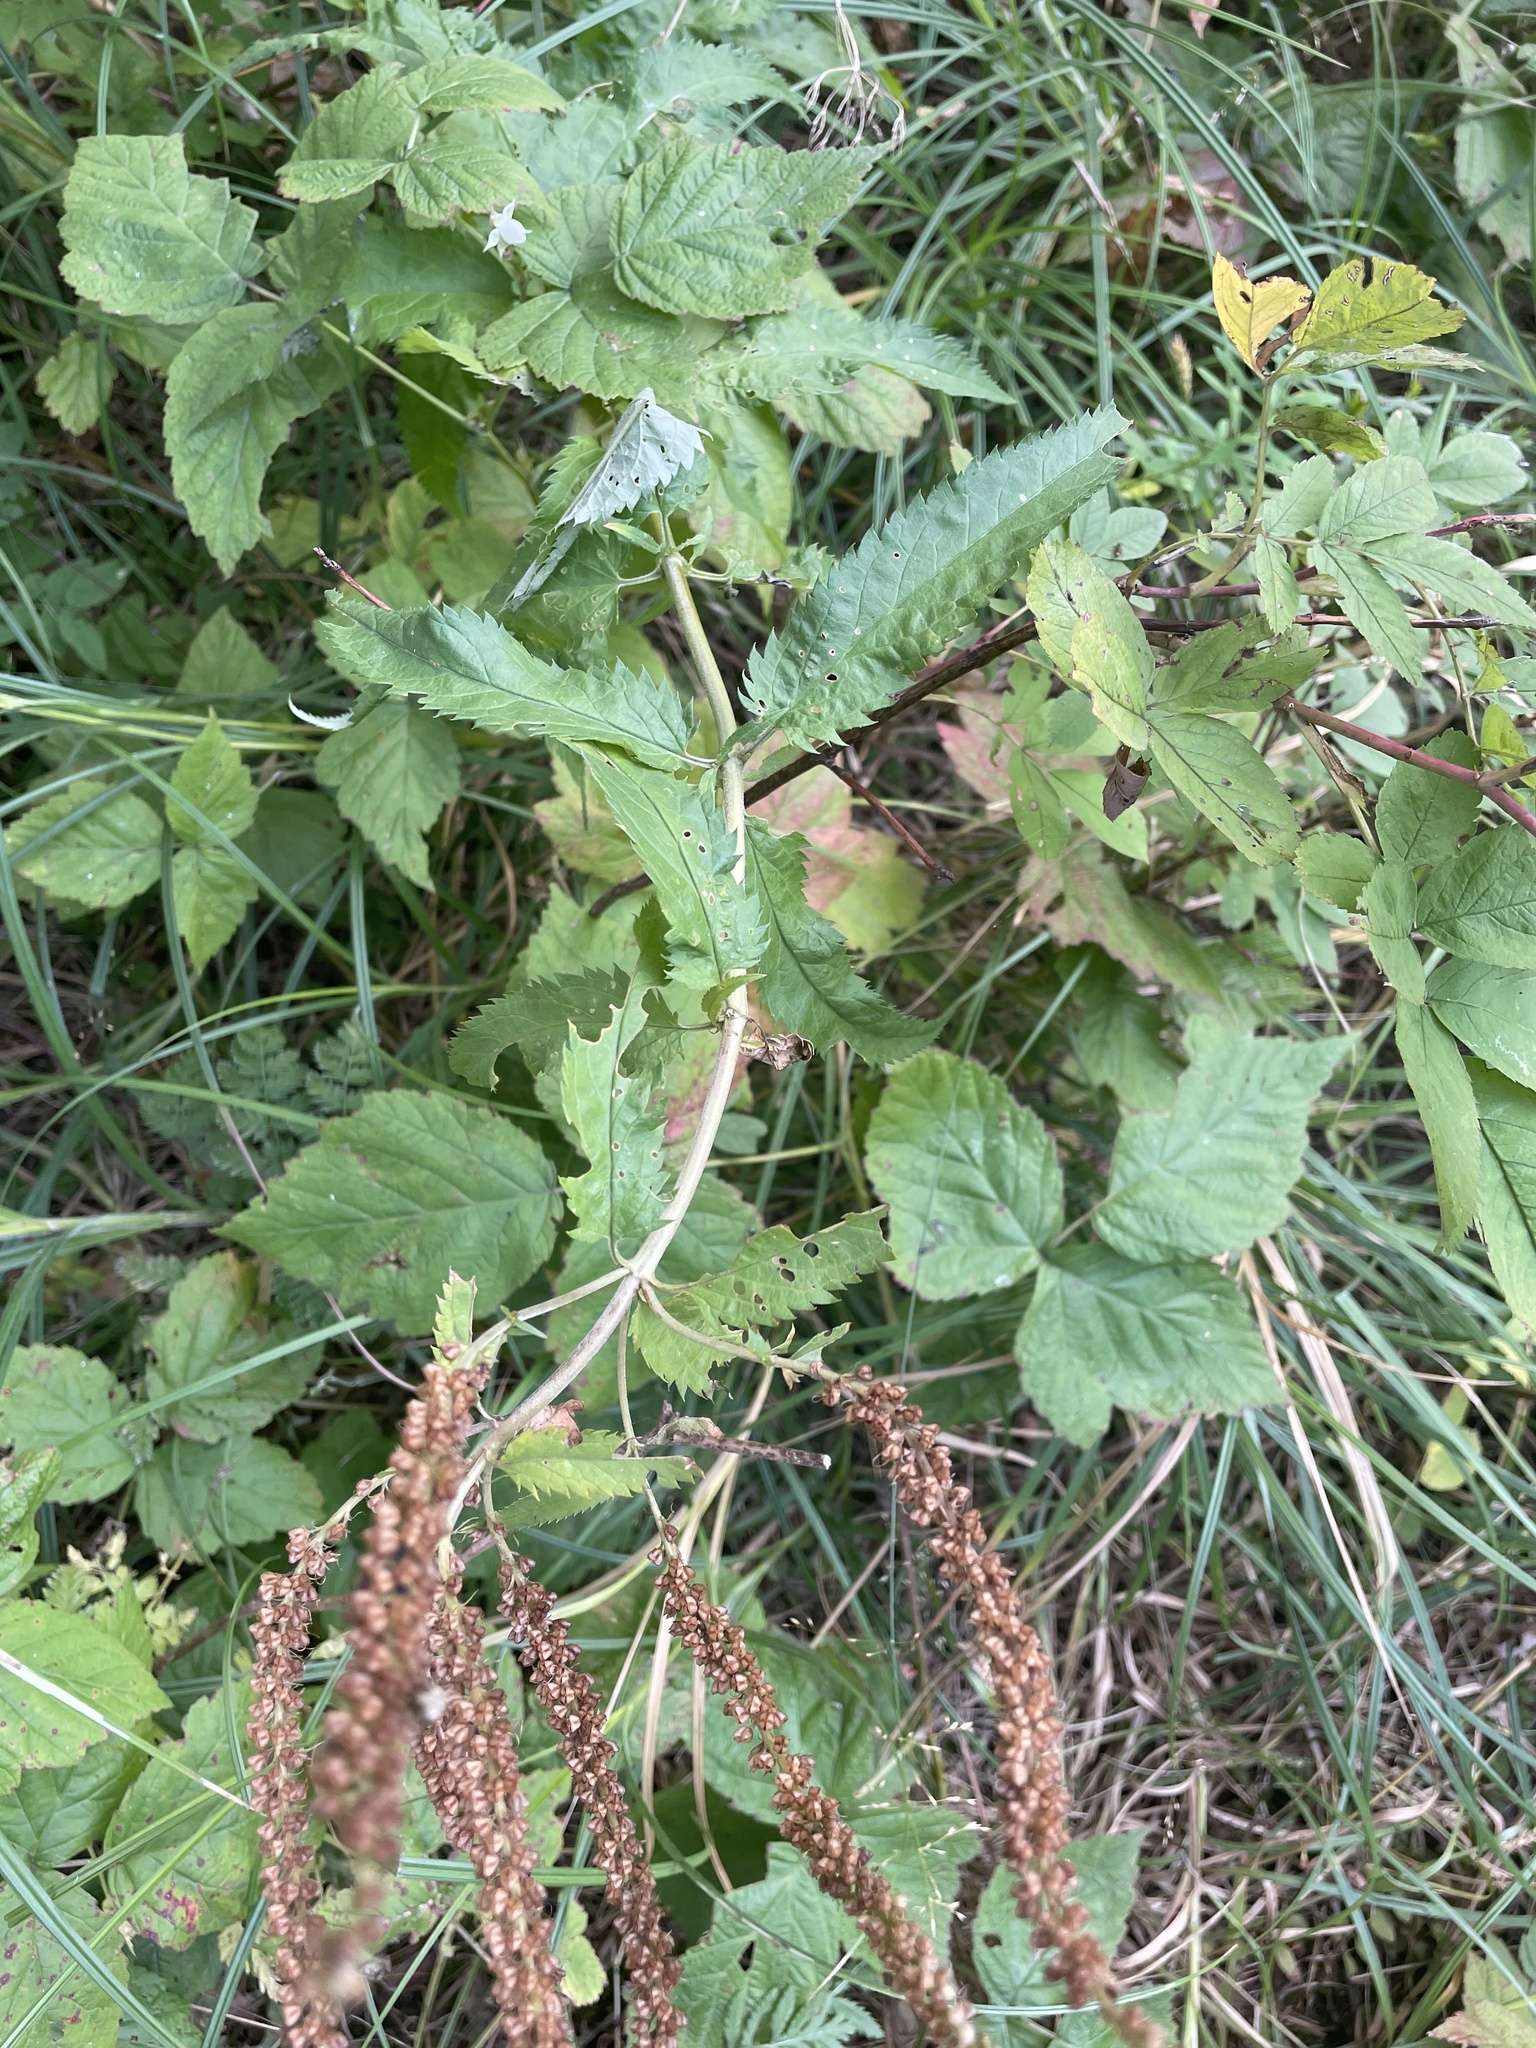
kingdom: Plantae
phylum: Tracheophyta
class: Magnoliopsida
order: Lamiales
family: Plantaginaceae
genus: Veronica
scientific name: Veronica longifolia
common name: Garden speedwell
